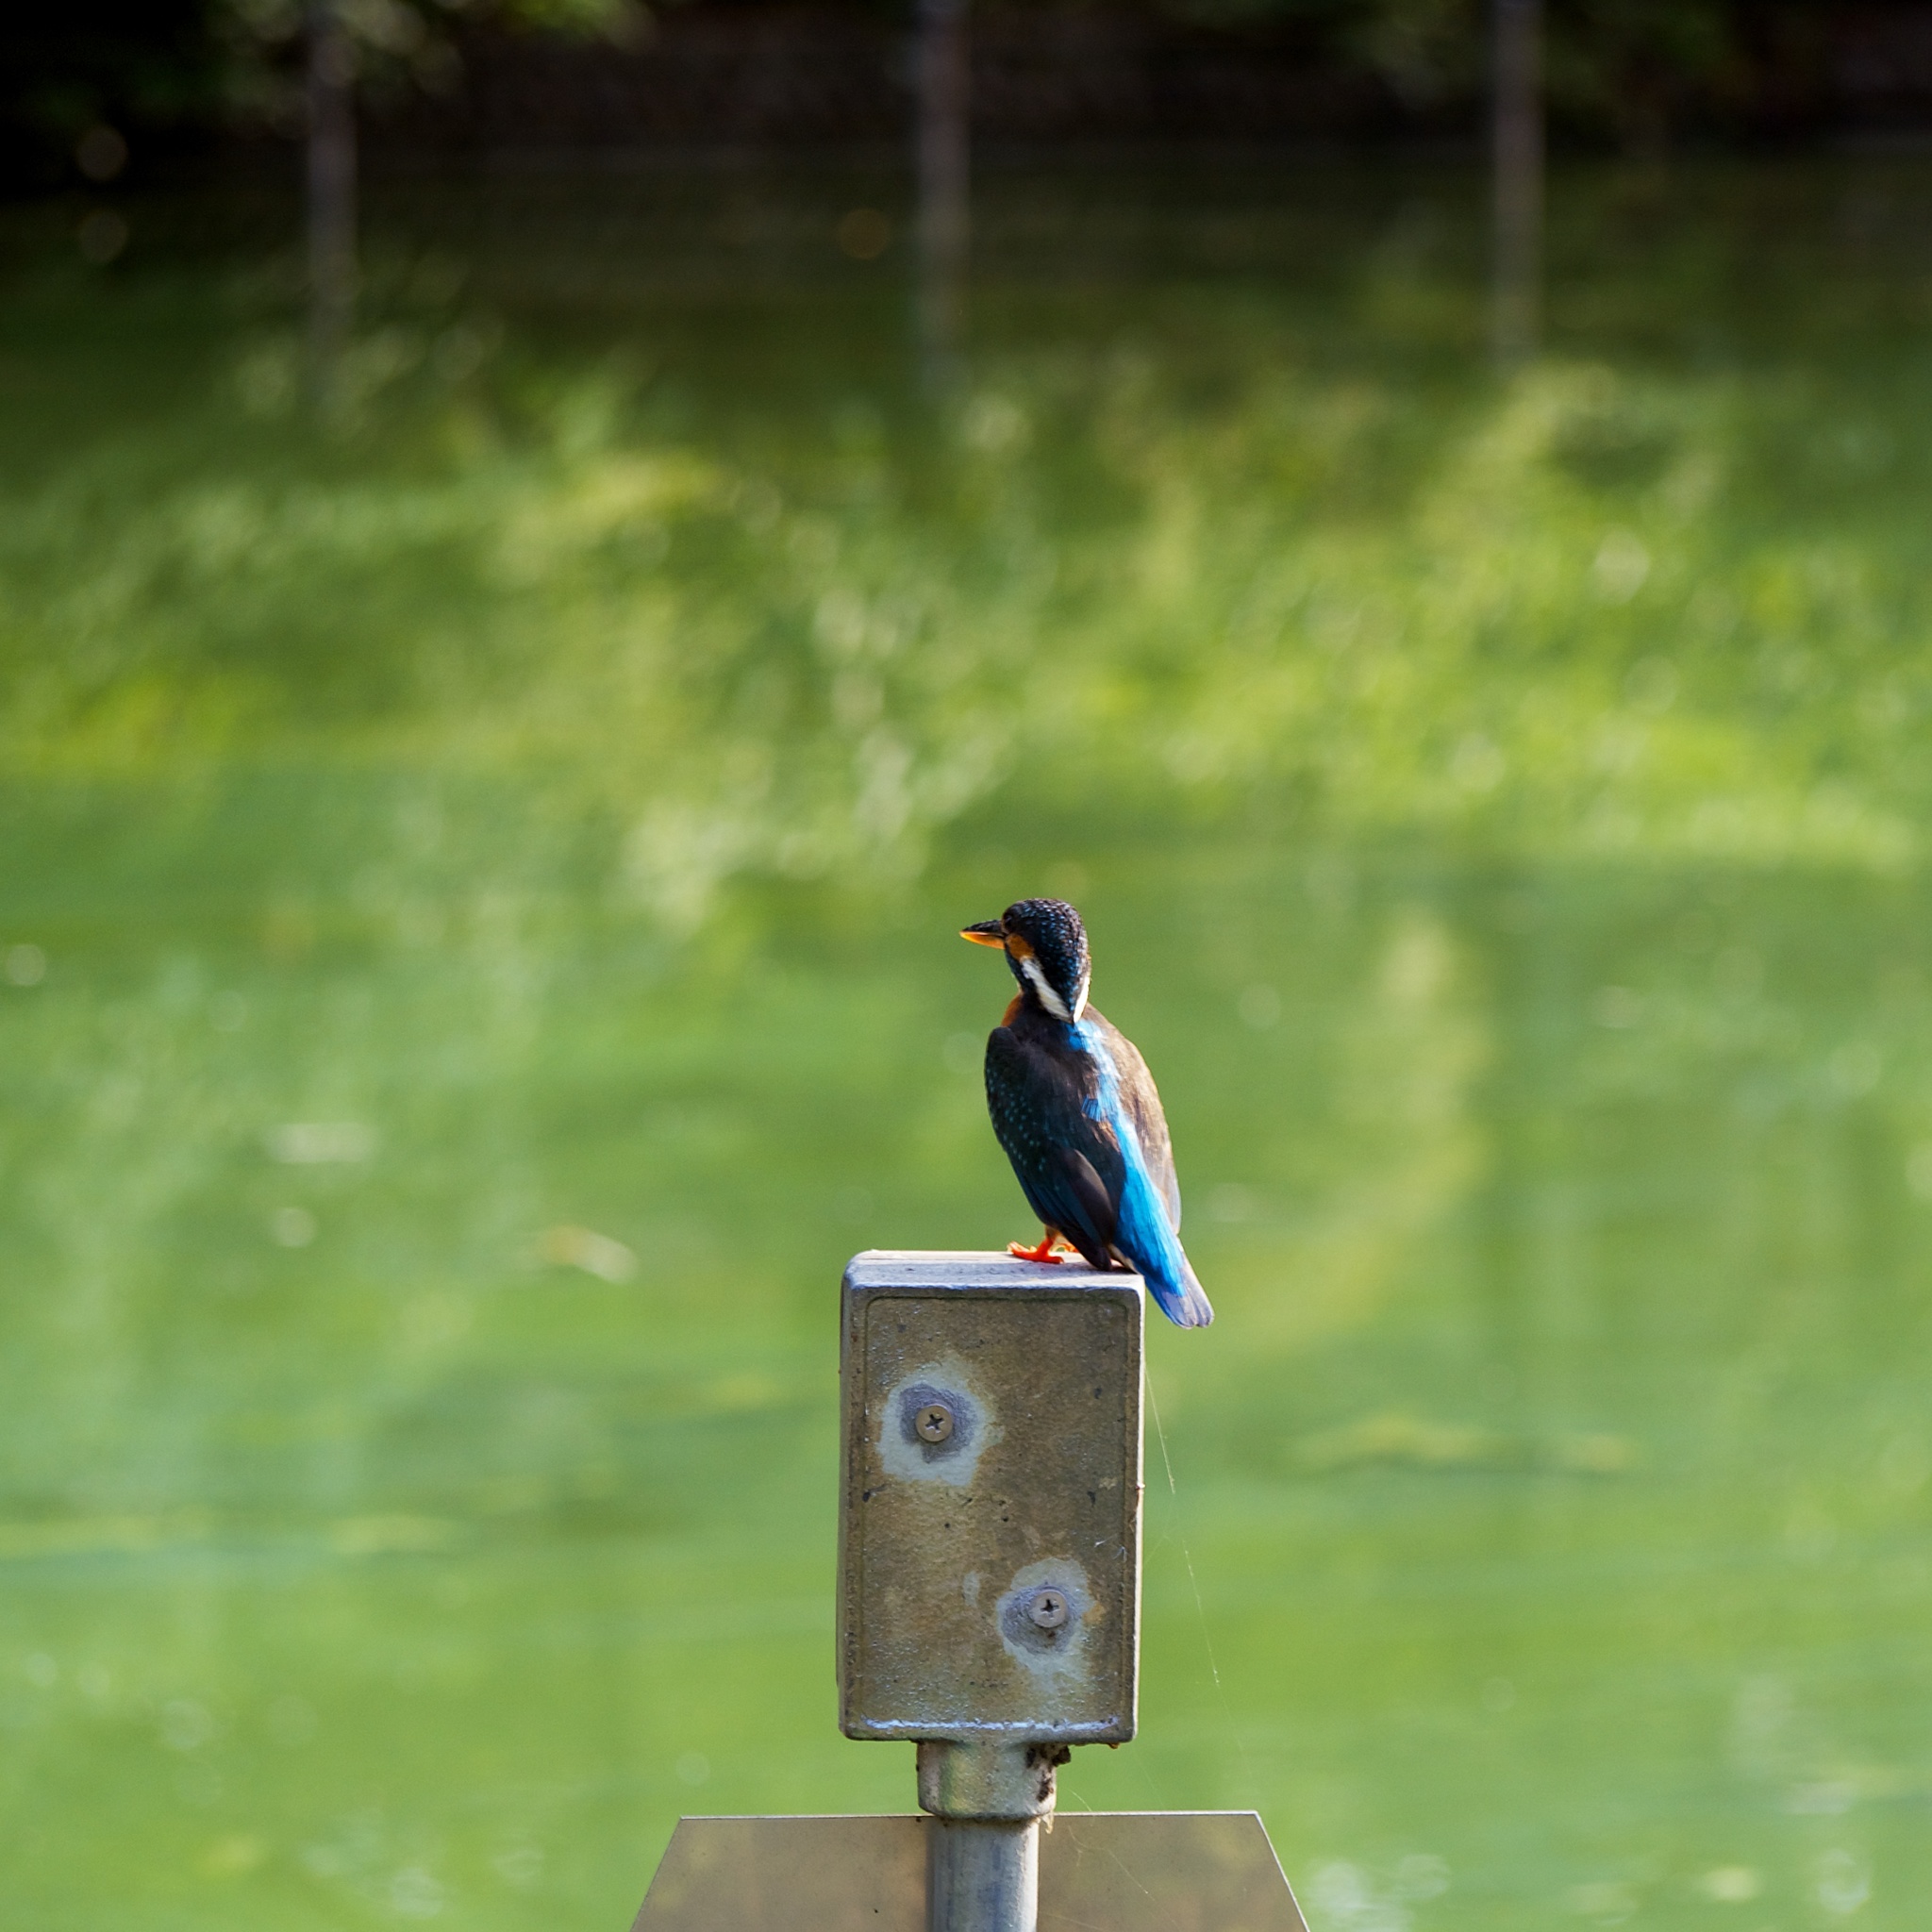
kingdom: Animalia
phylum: Chordata
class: Aves
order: Coraciiformes
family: Alcedinidae
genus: Alcedo
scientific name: Alcedo atthis
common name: Common kingfisher
